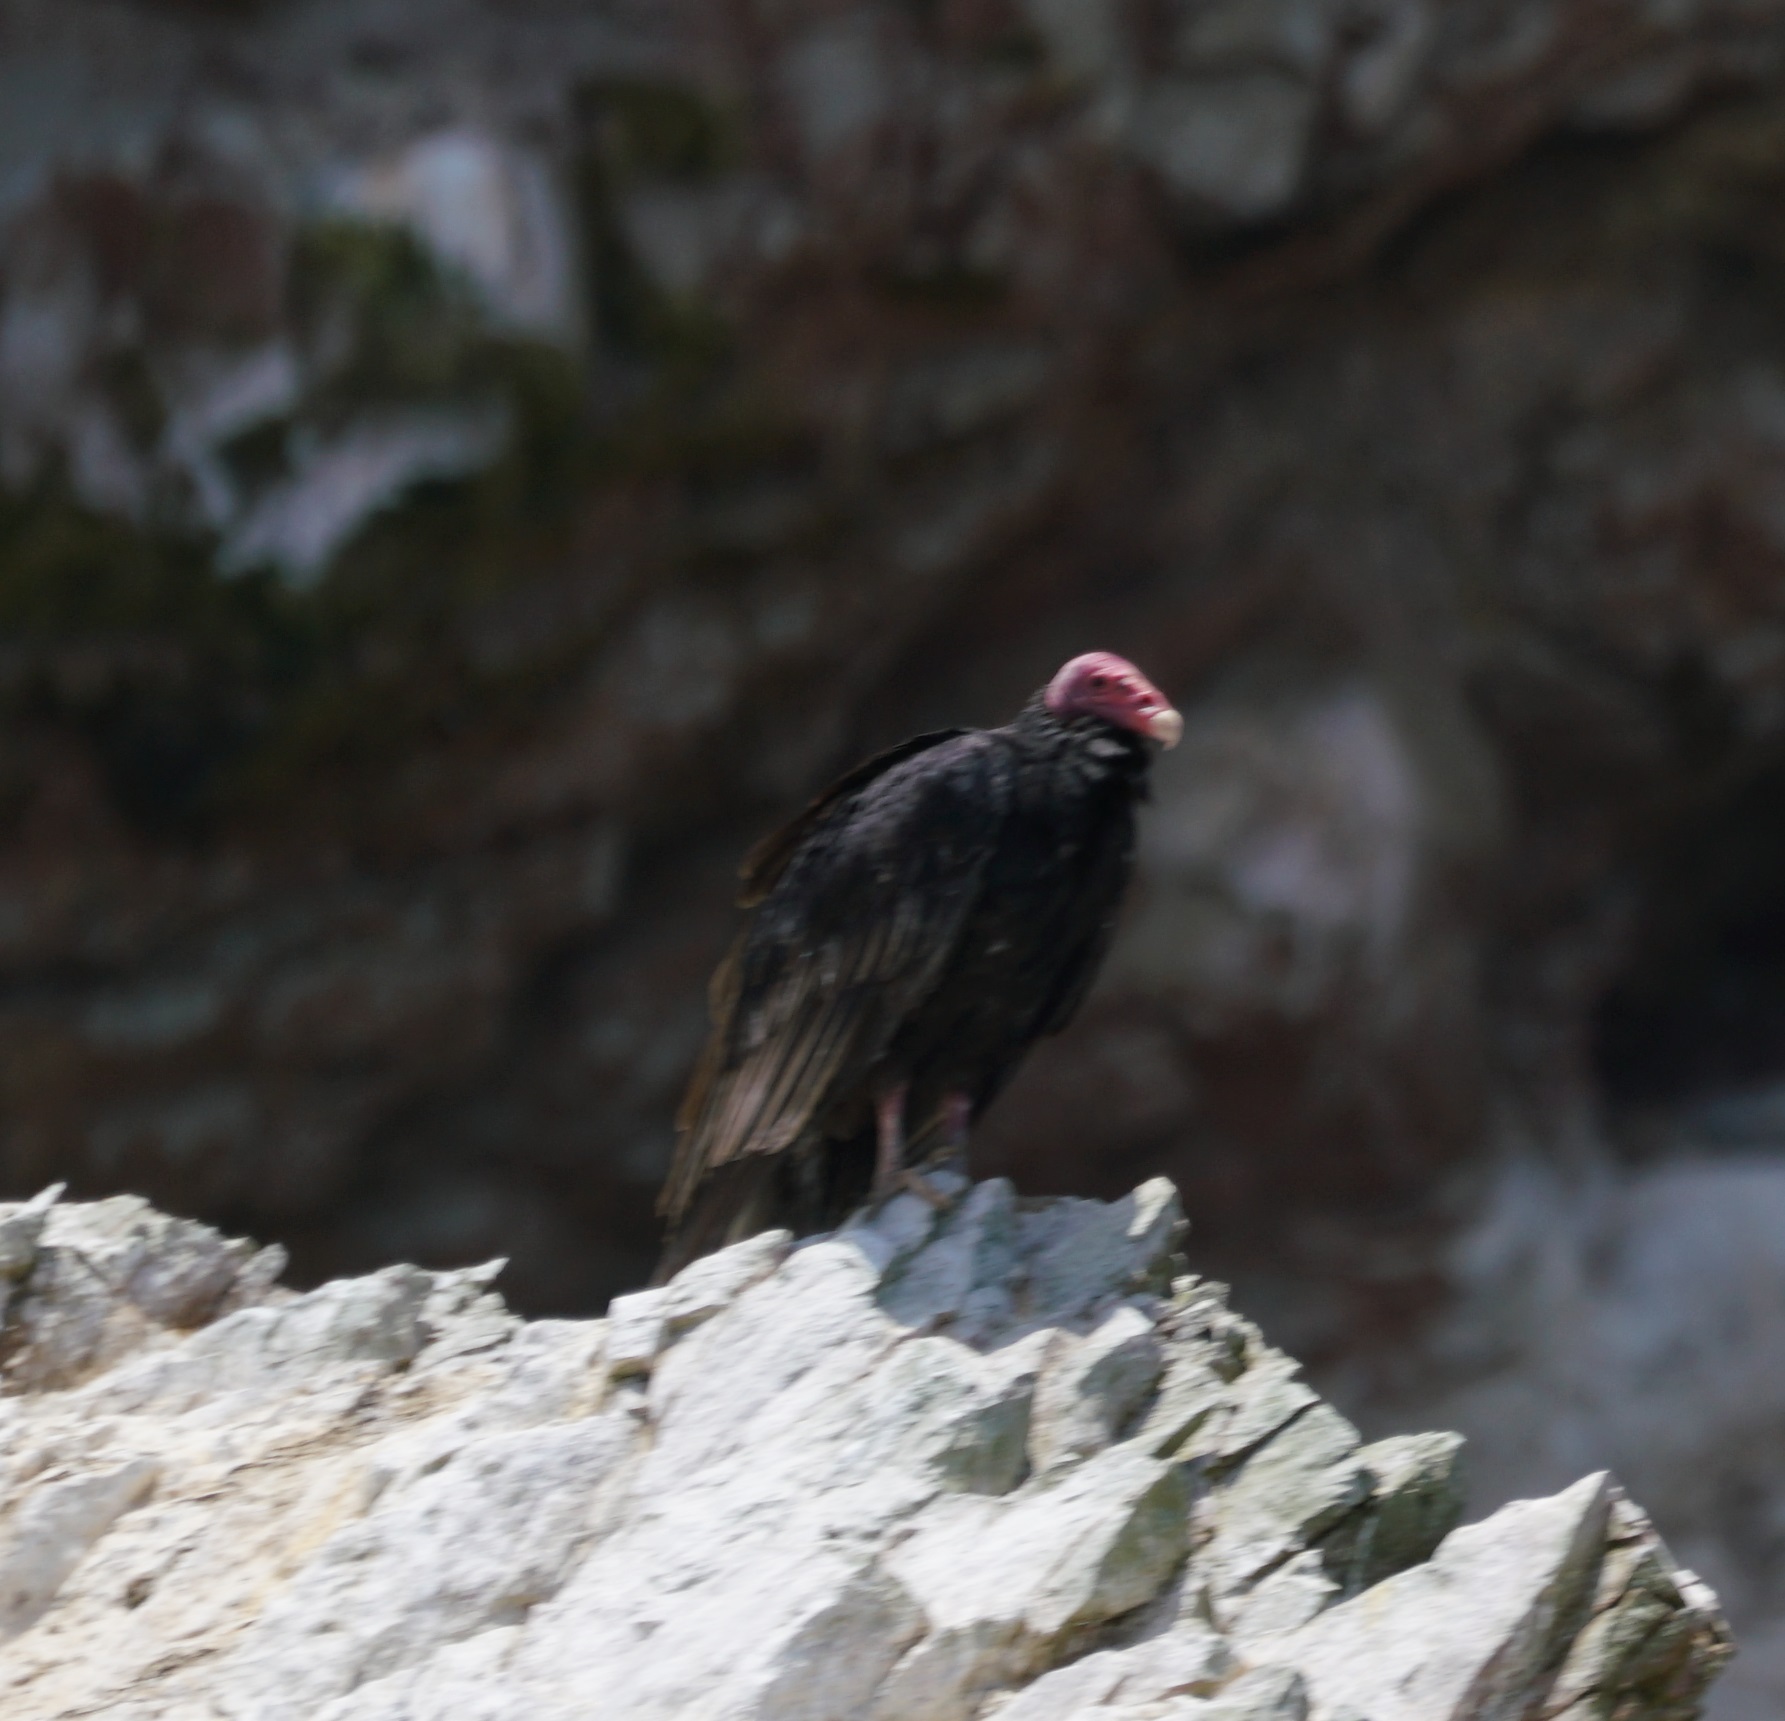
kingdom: Animalia
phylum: Chordata
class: Aves
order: Accipitriformes
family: Cathartidae
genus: Cathartes
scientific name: Cathartes aura
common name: Turkey vulture
